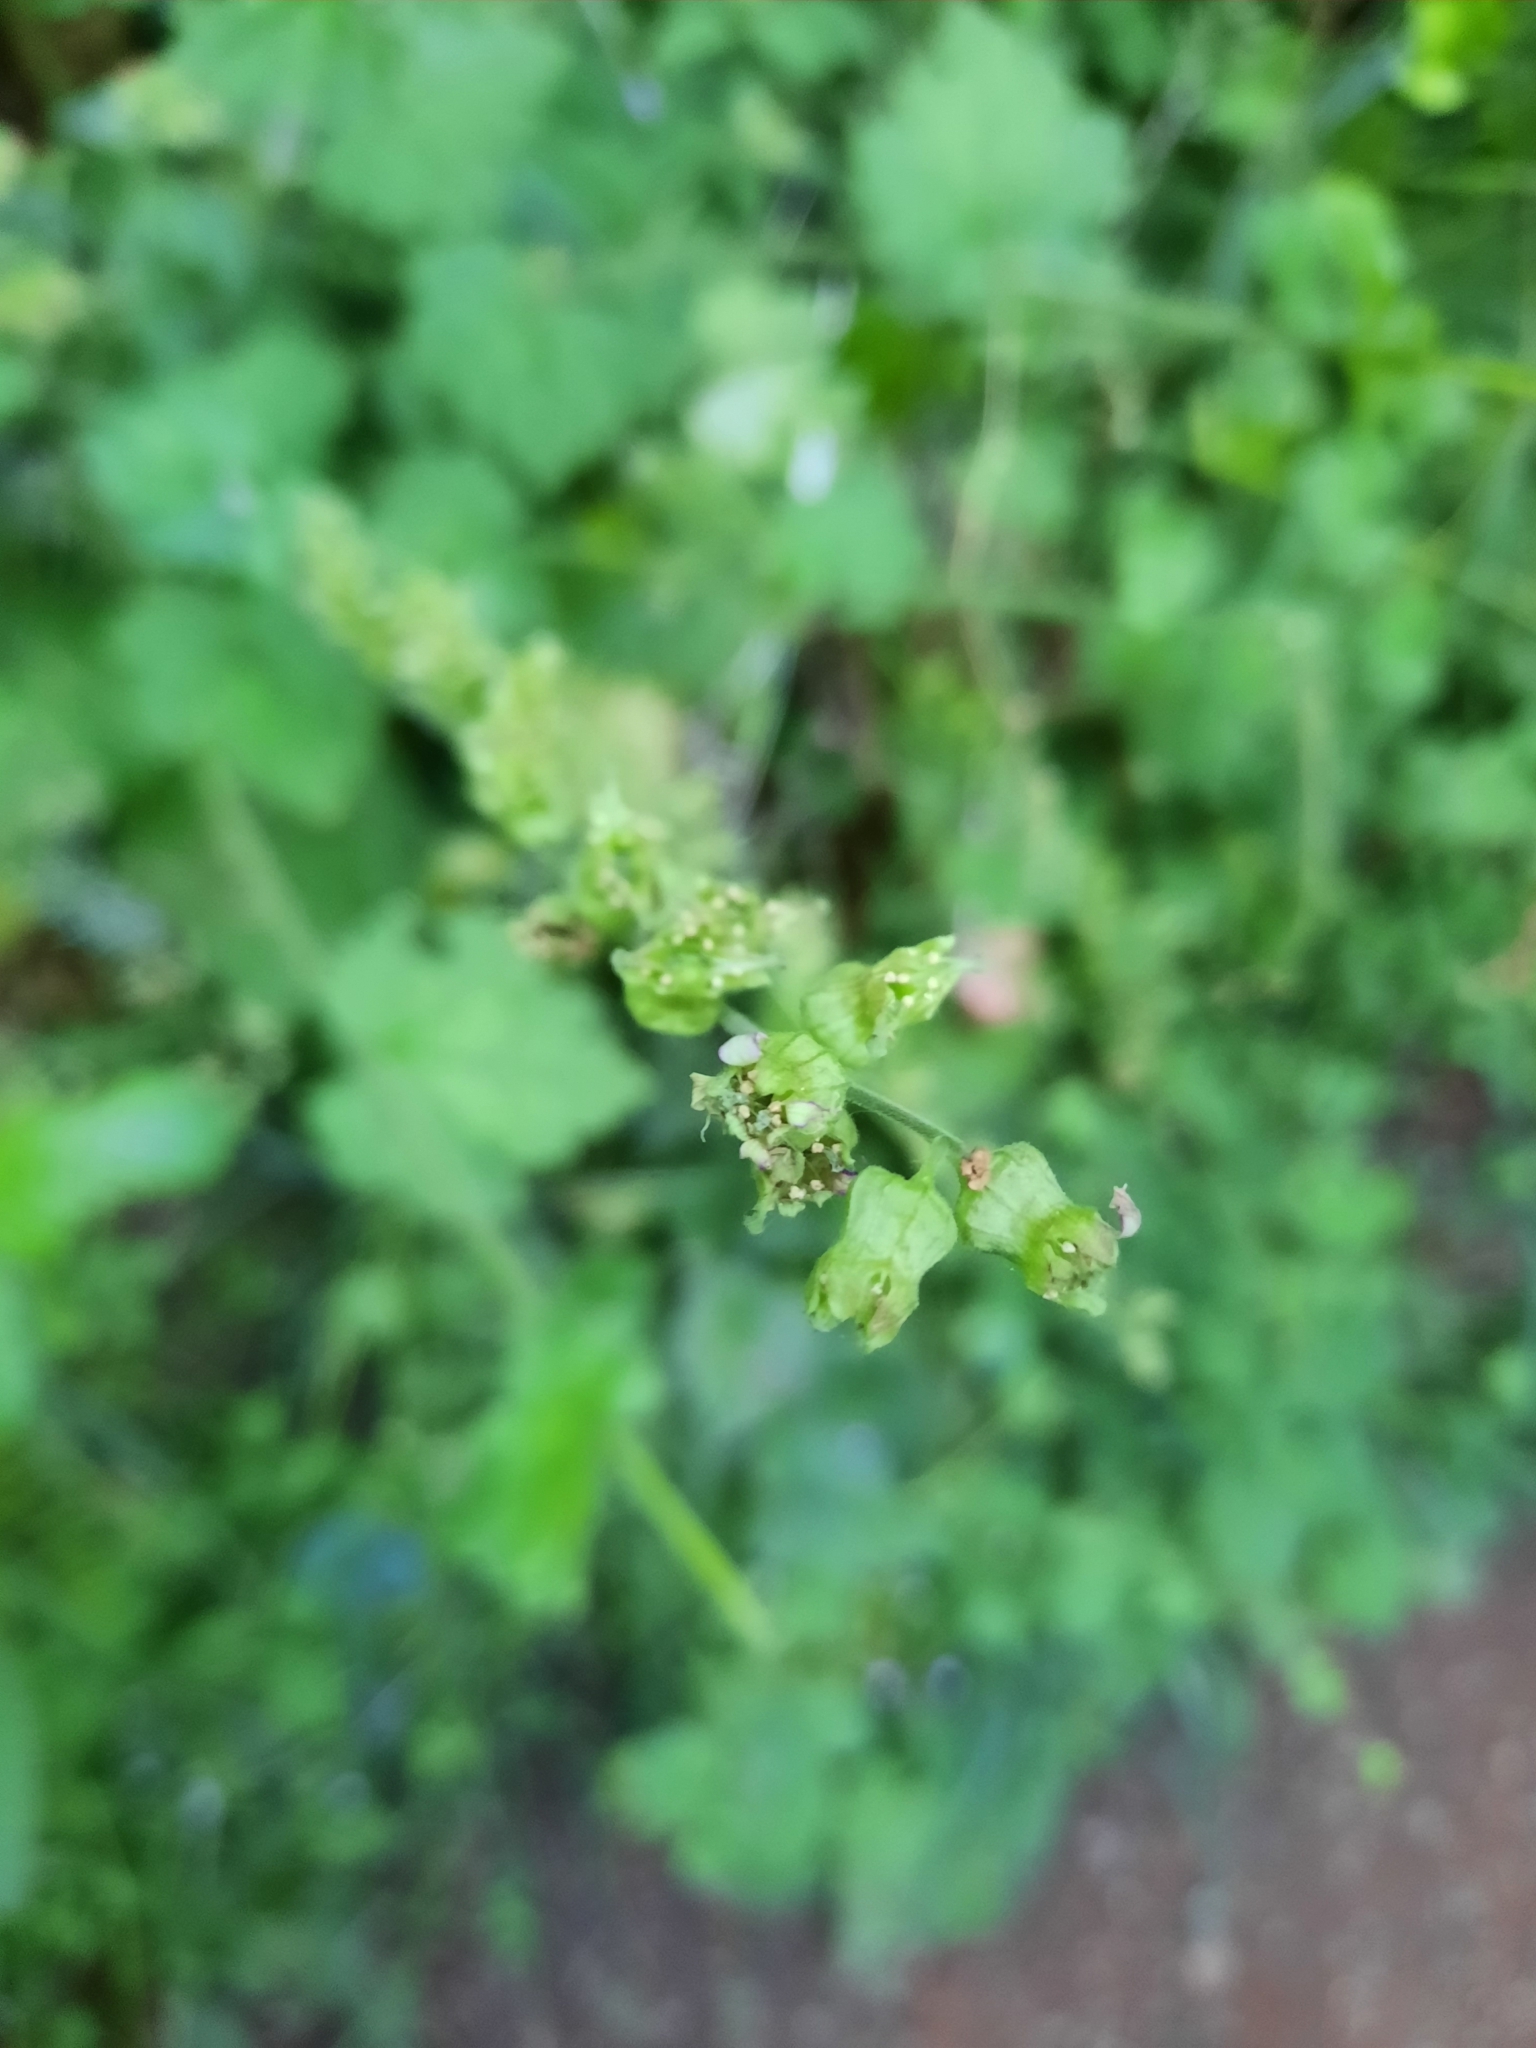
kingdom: Plantae
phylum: Tracheophyta
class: Magnoliopsida
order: Saxifragales
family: Saxifragaceae
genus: Tellima
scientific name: Tellima grandiflora
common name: Fringecups
